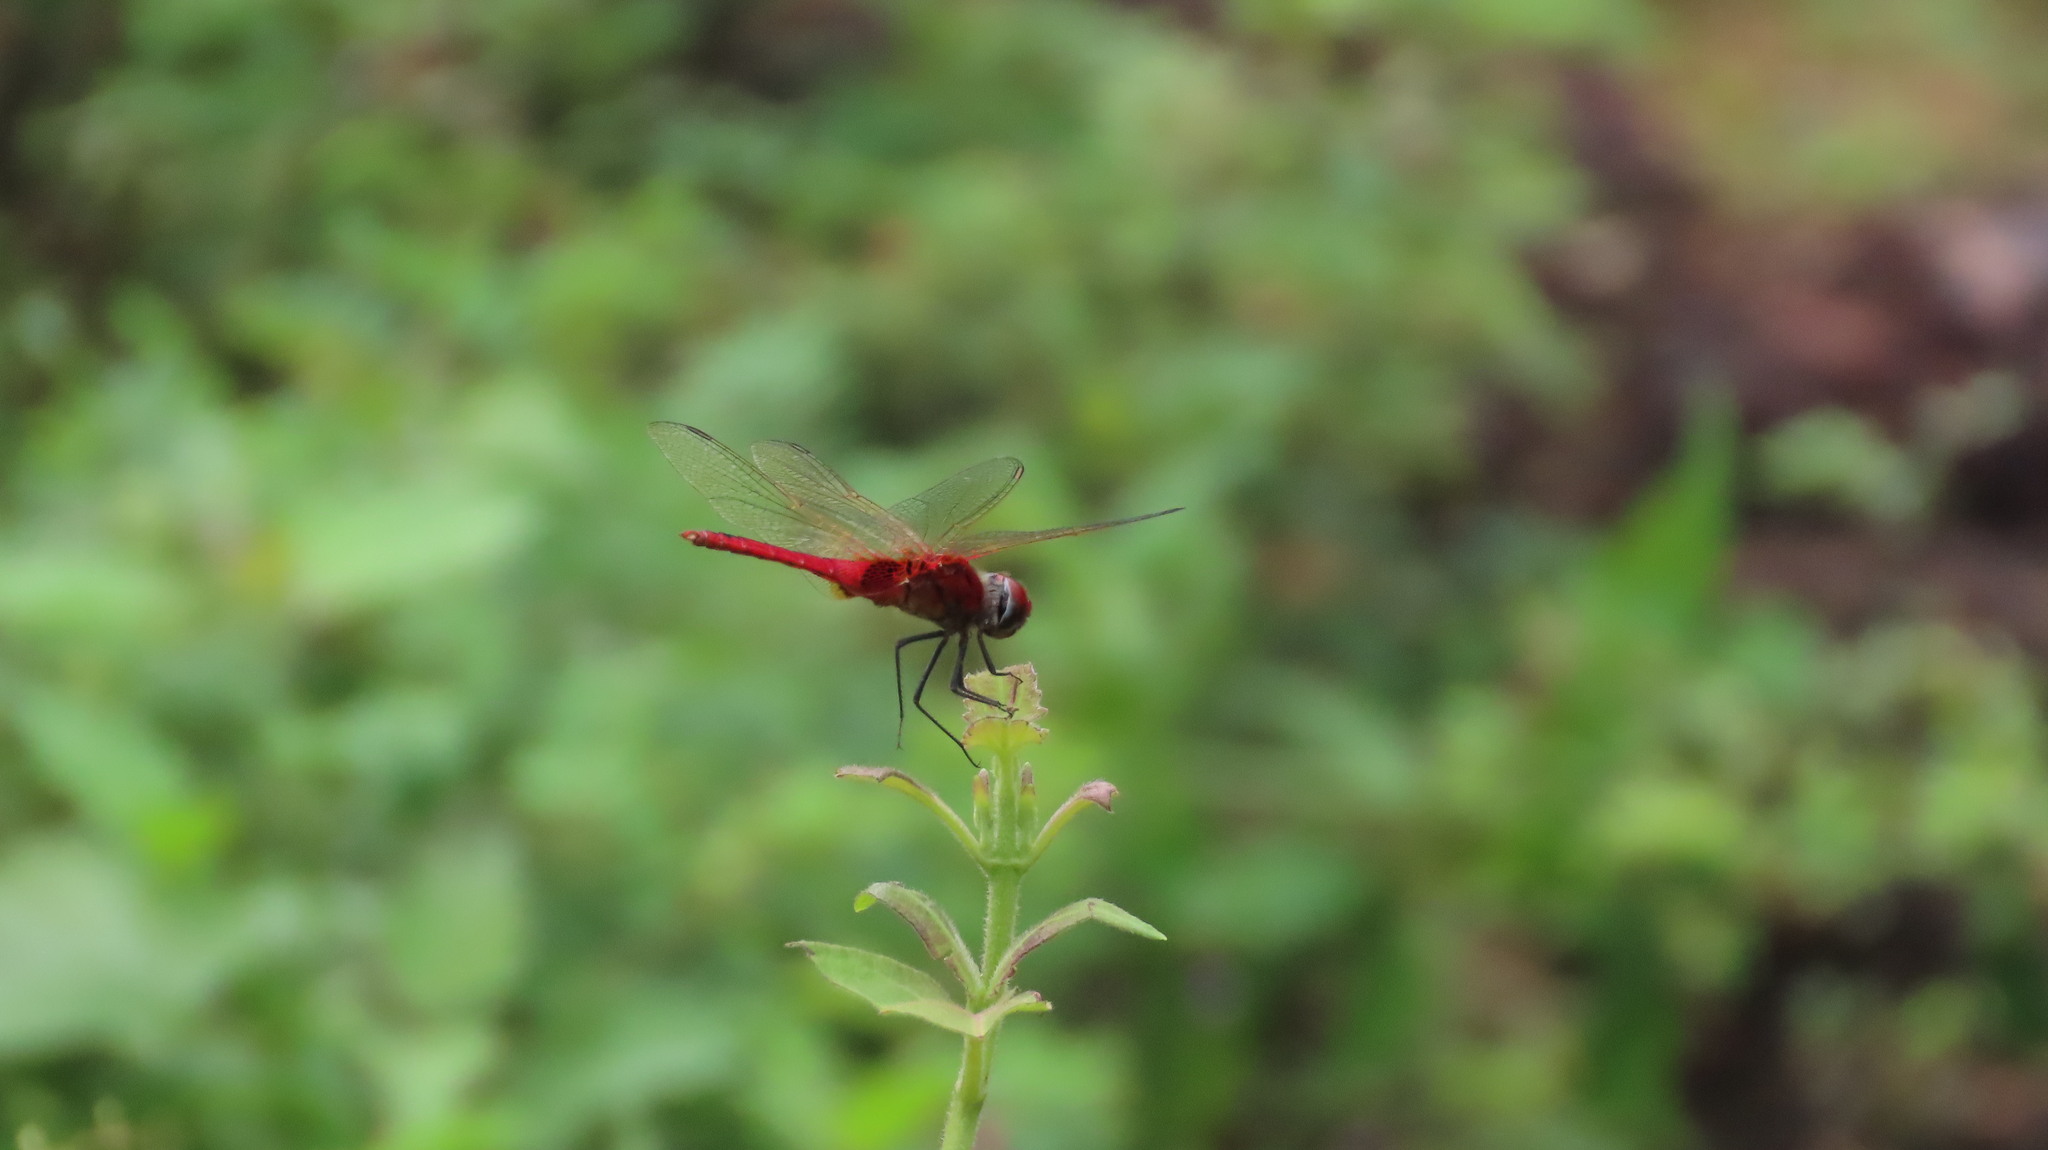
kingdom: Animalia
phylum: Arthropoda
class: Insecta
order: Odonata
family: Libellulidae
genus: Urothemis
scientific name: Urothemis signata
